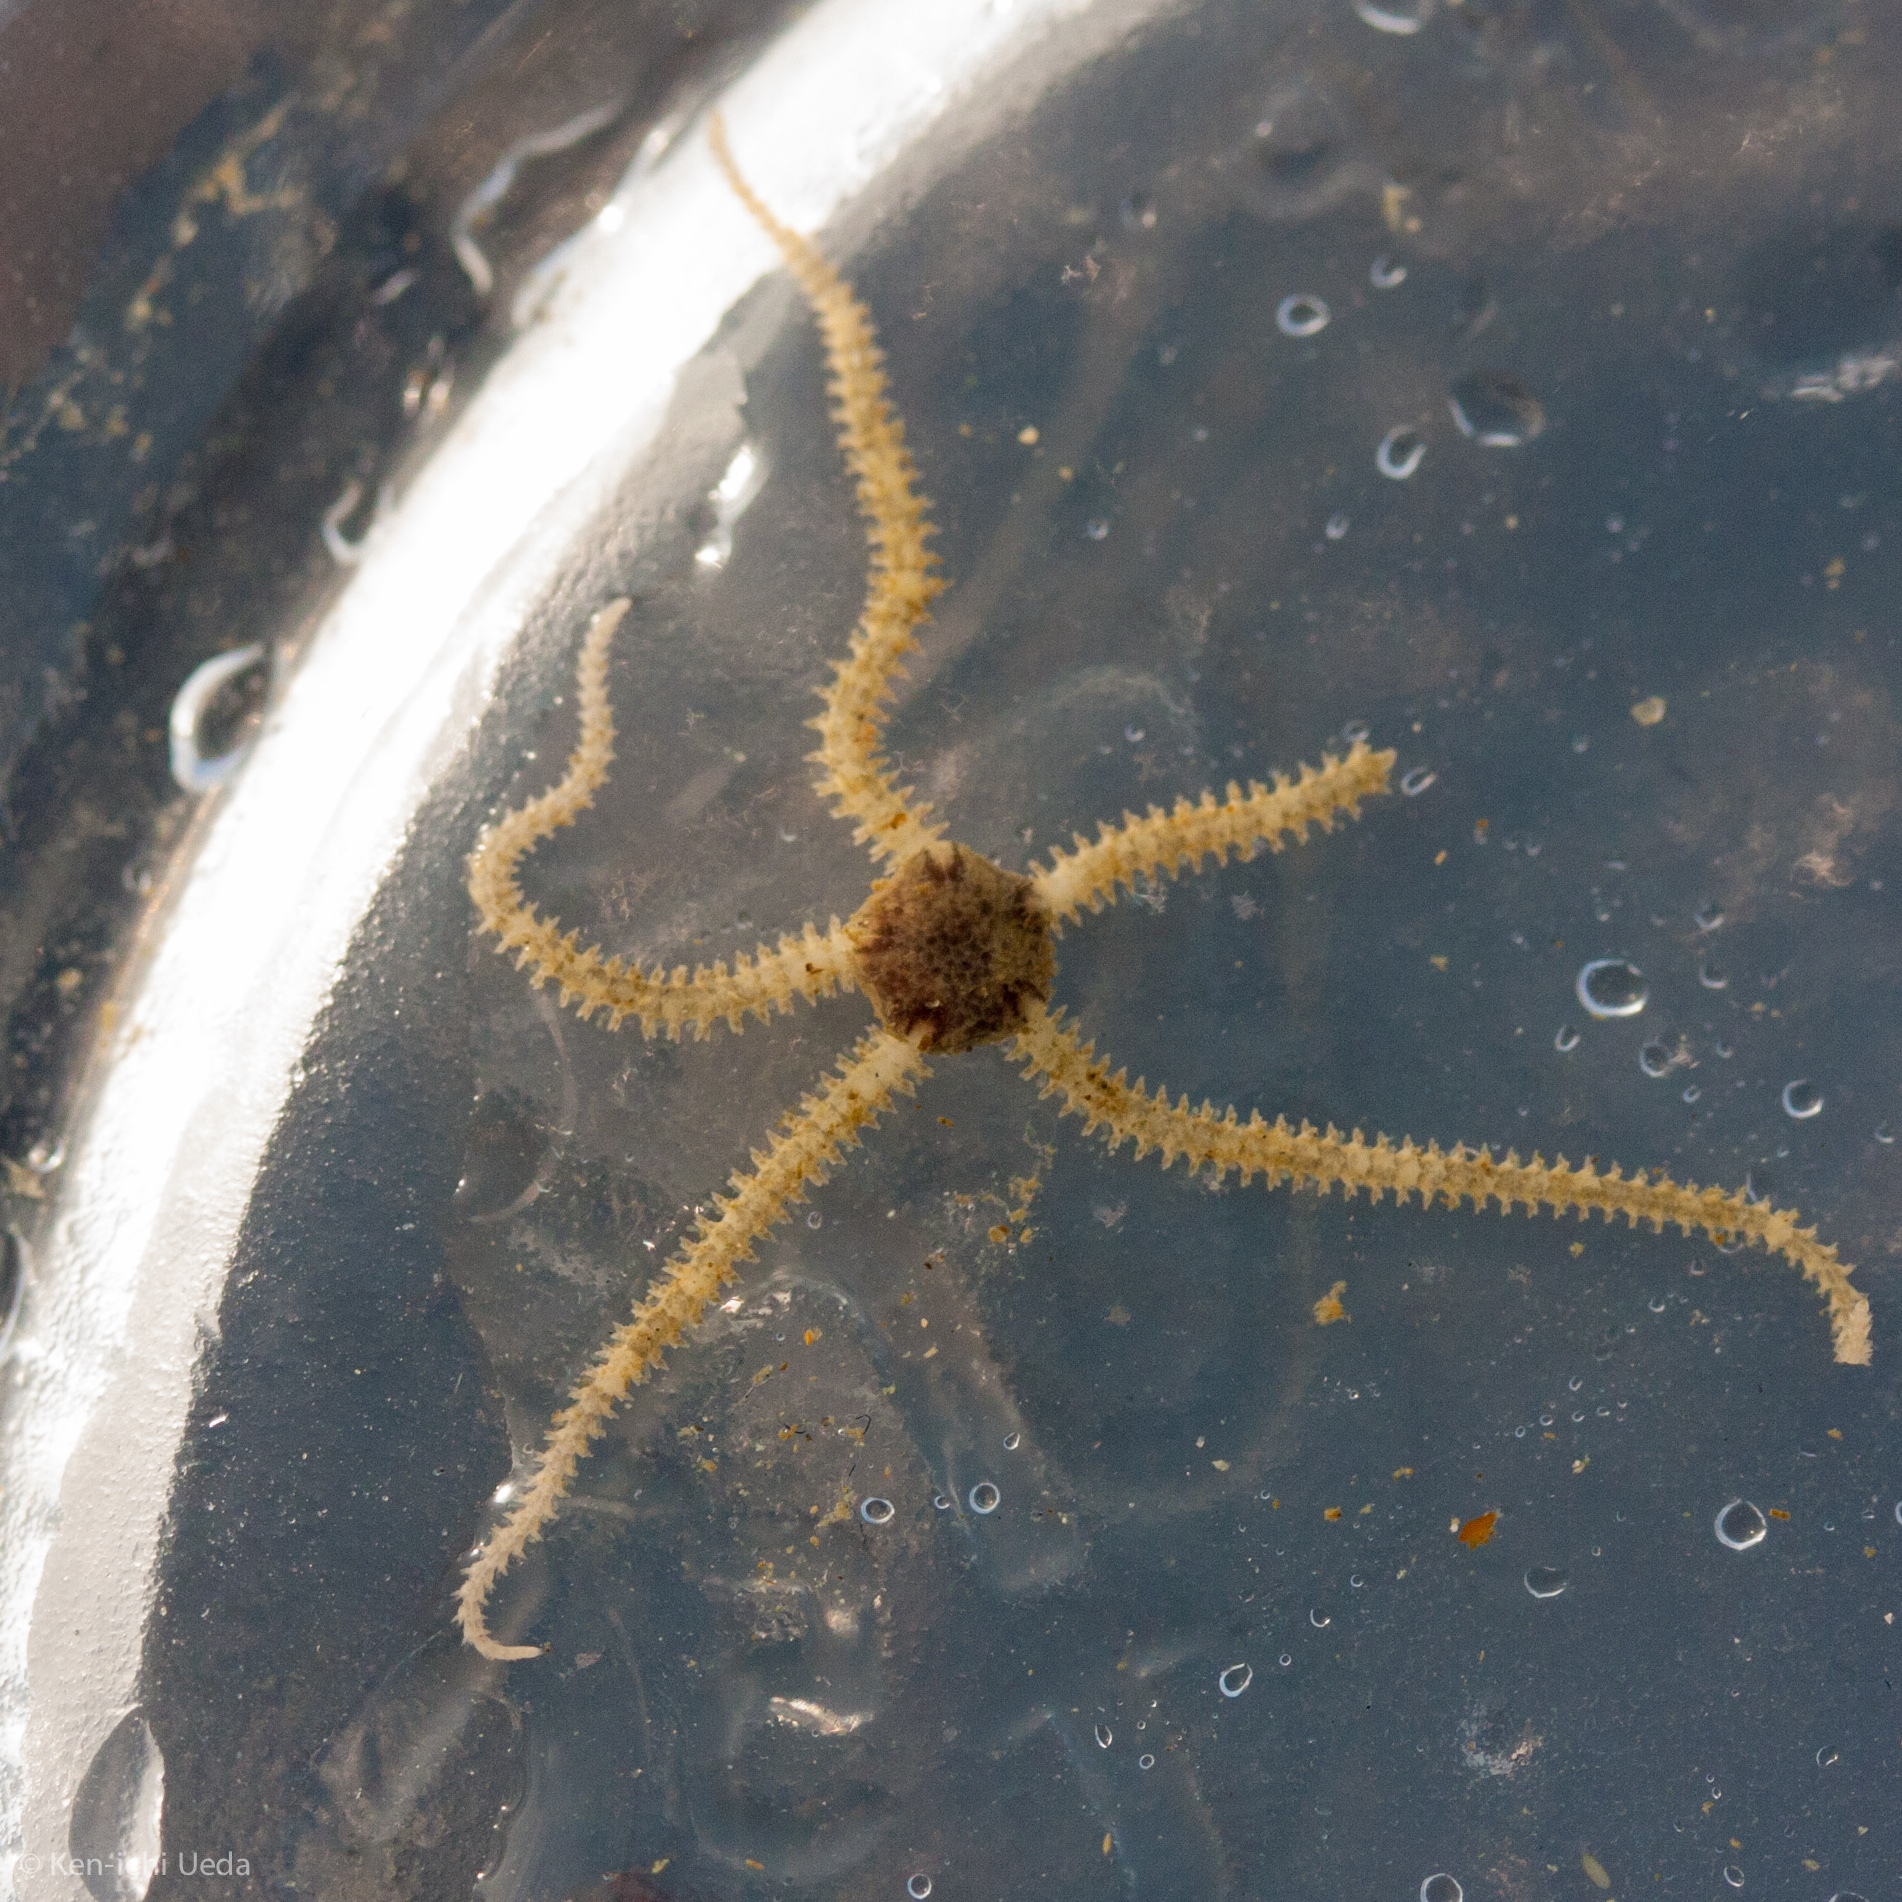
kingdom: Animalia
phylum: Echinodermata
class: Ophiuroidea
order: Amphilepidida
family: Amphiuridae
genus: Amphipholis
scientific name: Amphipholis squamata
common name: Brooding snake star
